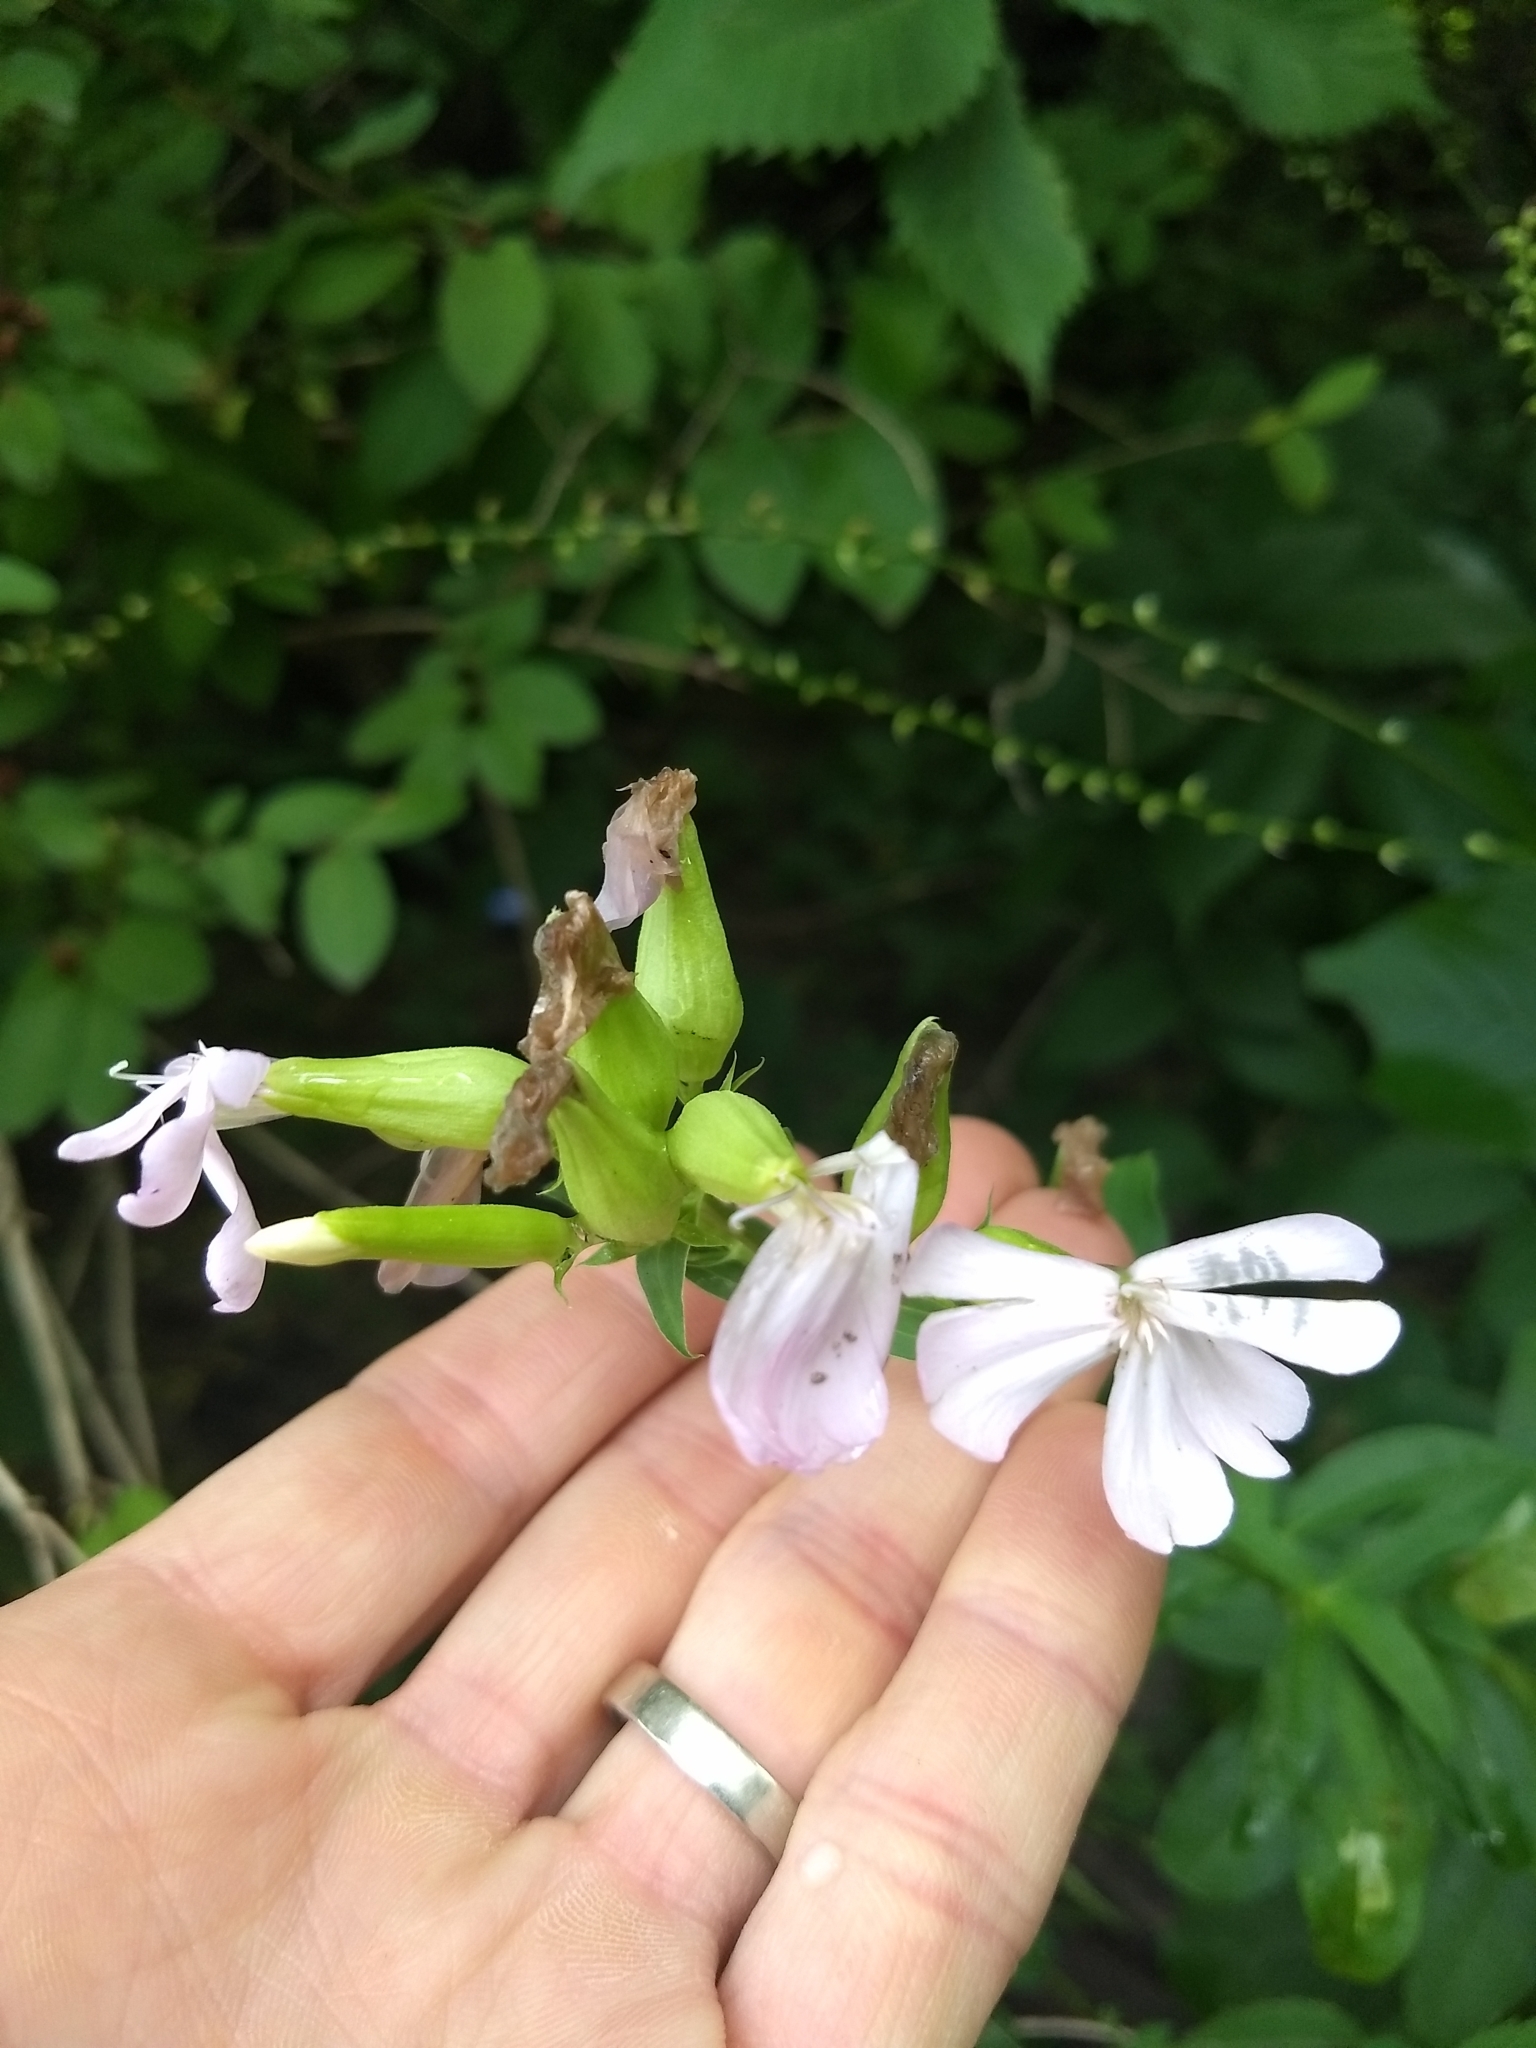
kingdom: Plantae
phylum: Tracheophyta
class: Magnoliopsida
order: Caryophyllales
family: Caryophyllaceae
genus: Saponaria
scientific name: Saponaria officinalis
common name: Soapwort
